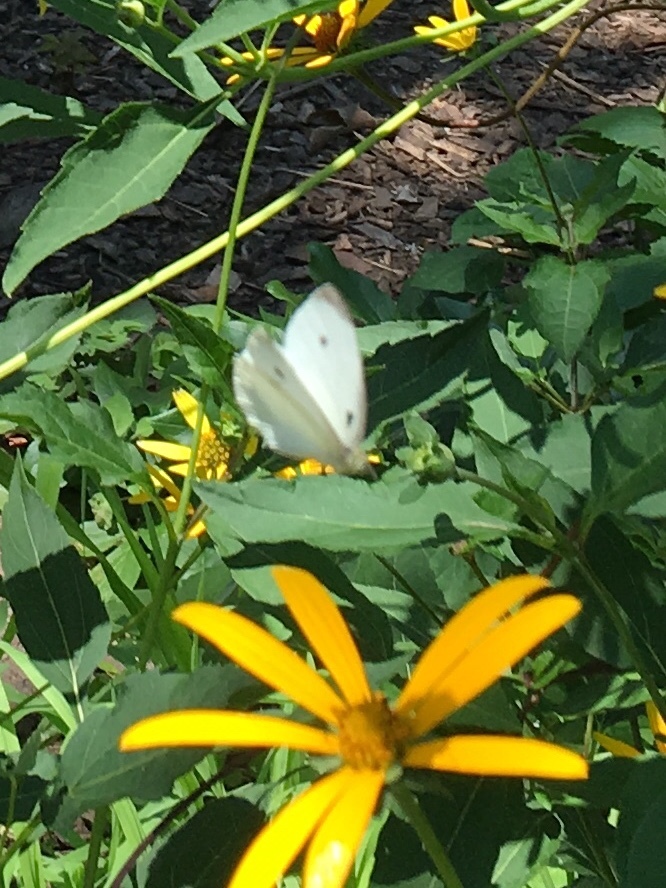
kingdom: Animalia
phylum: Arthropoda
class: Insecta
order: Lepidoptera
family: Pieridae
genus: Pieris
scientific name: Pieris rapae
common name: Small white
